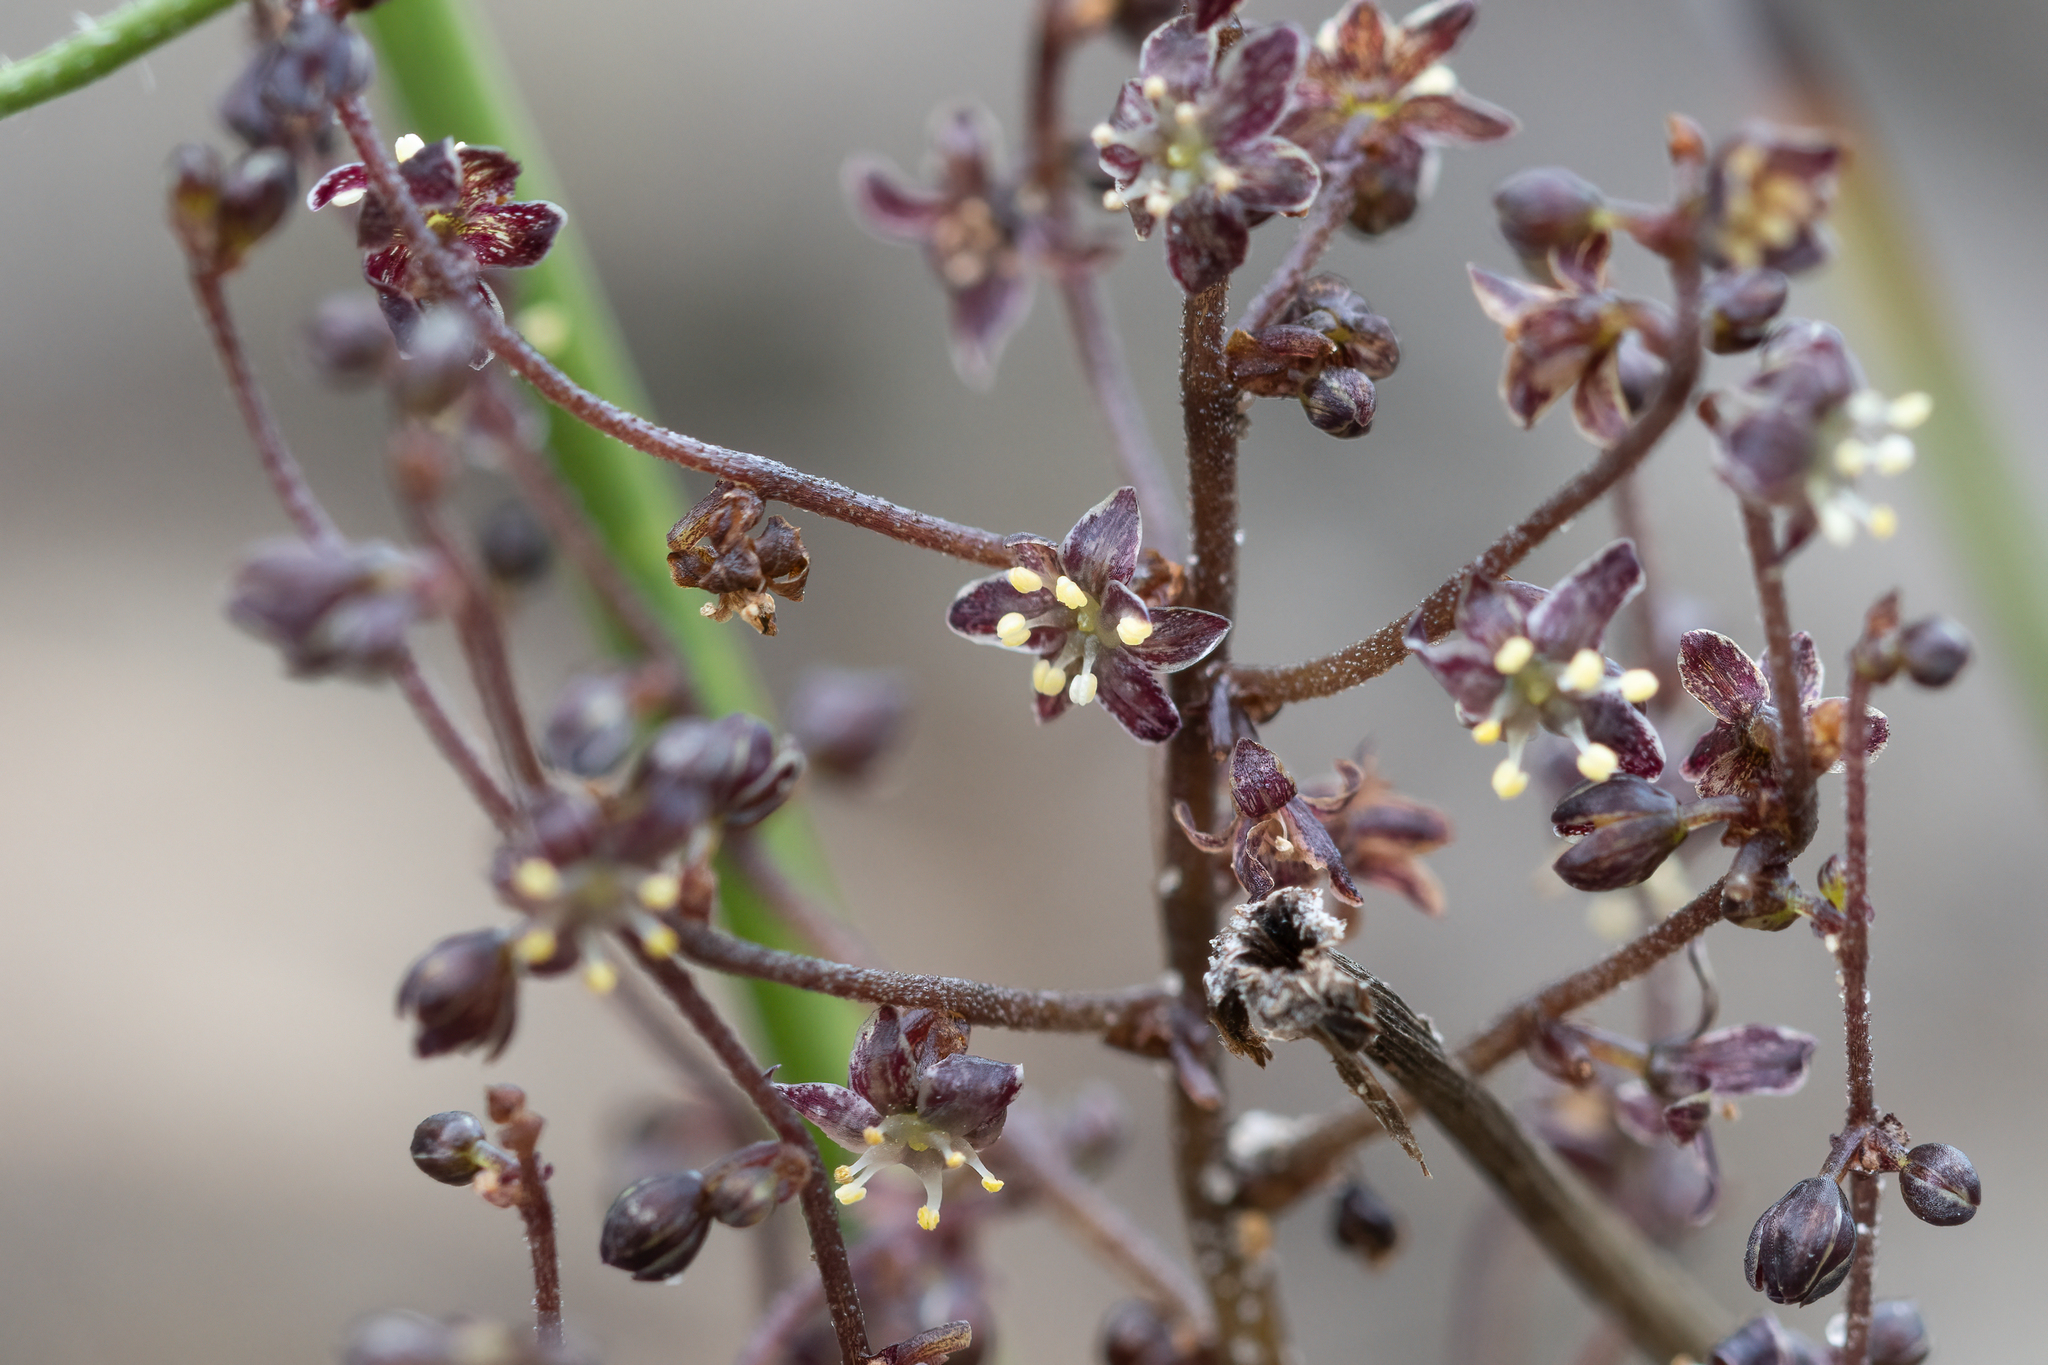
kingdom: Plantae
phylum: Tracheophyta
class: Liliopsida
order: Asparagales
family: Asparagaceae
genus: Lomandra
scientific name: Lomandra micrantha
